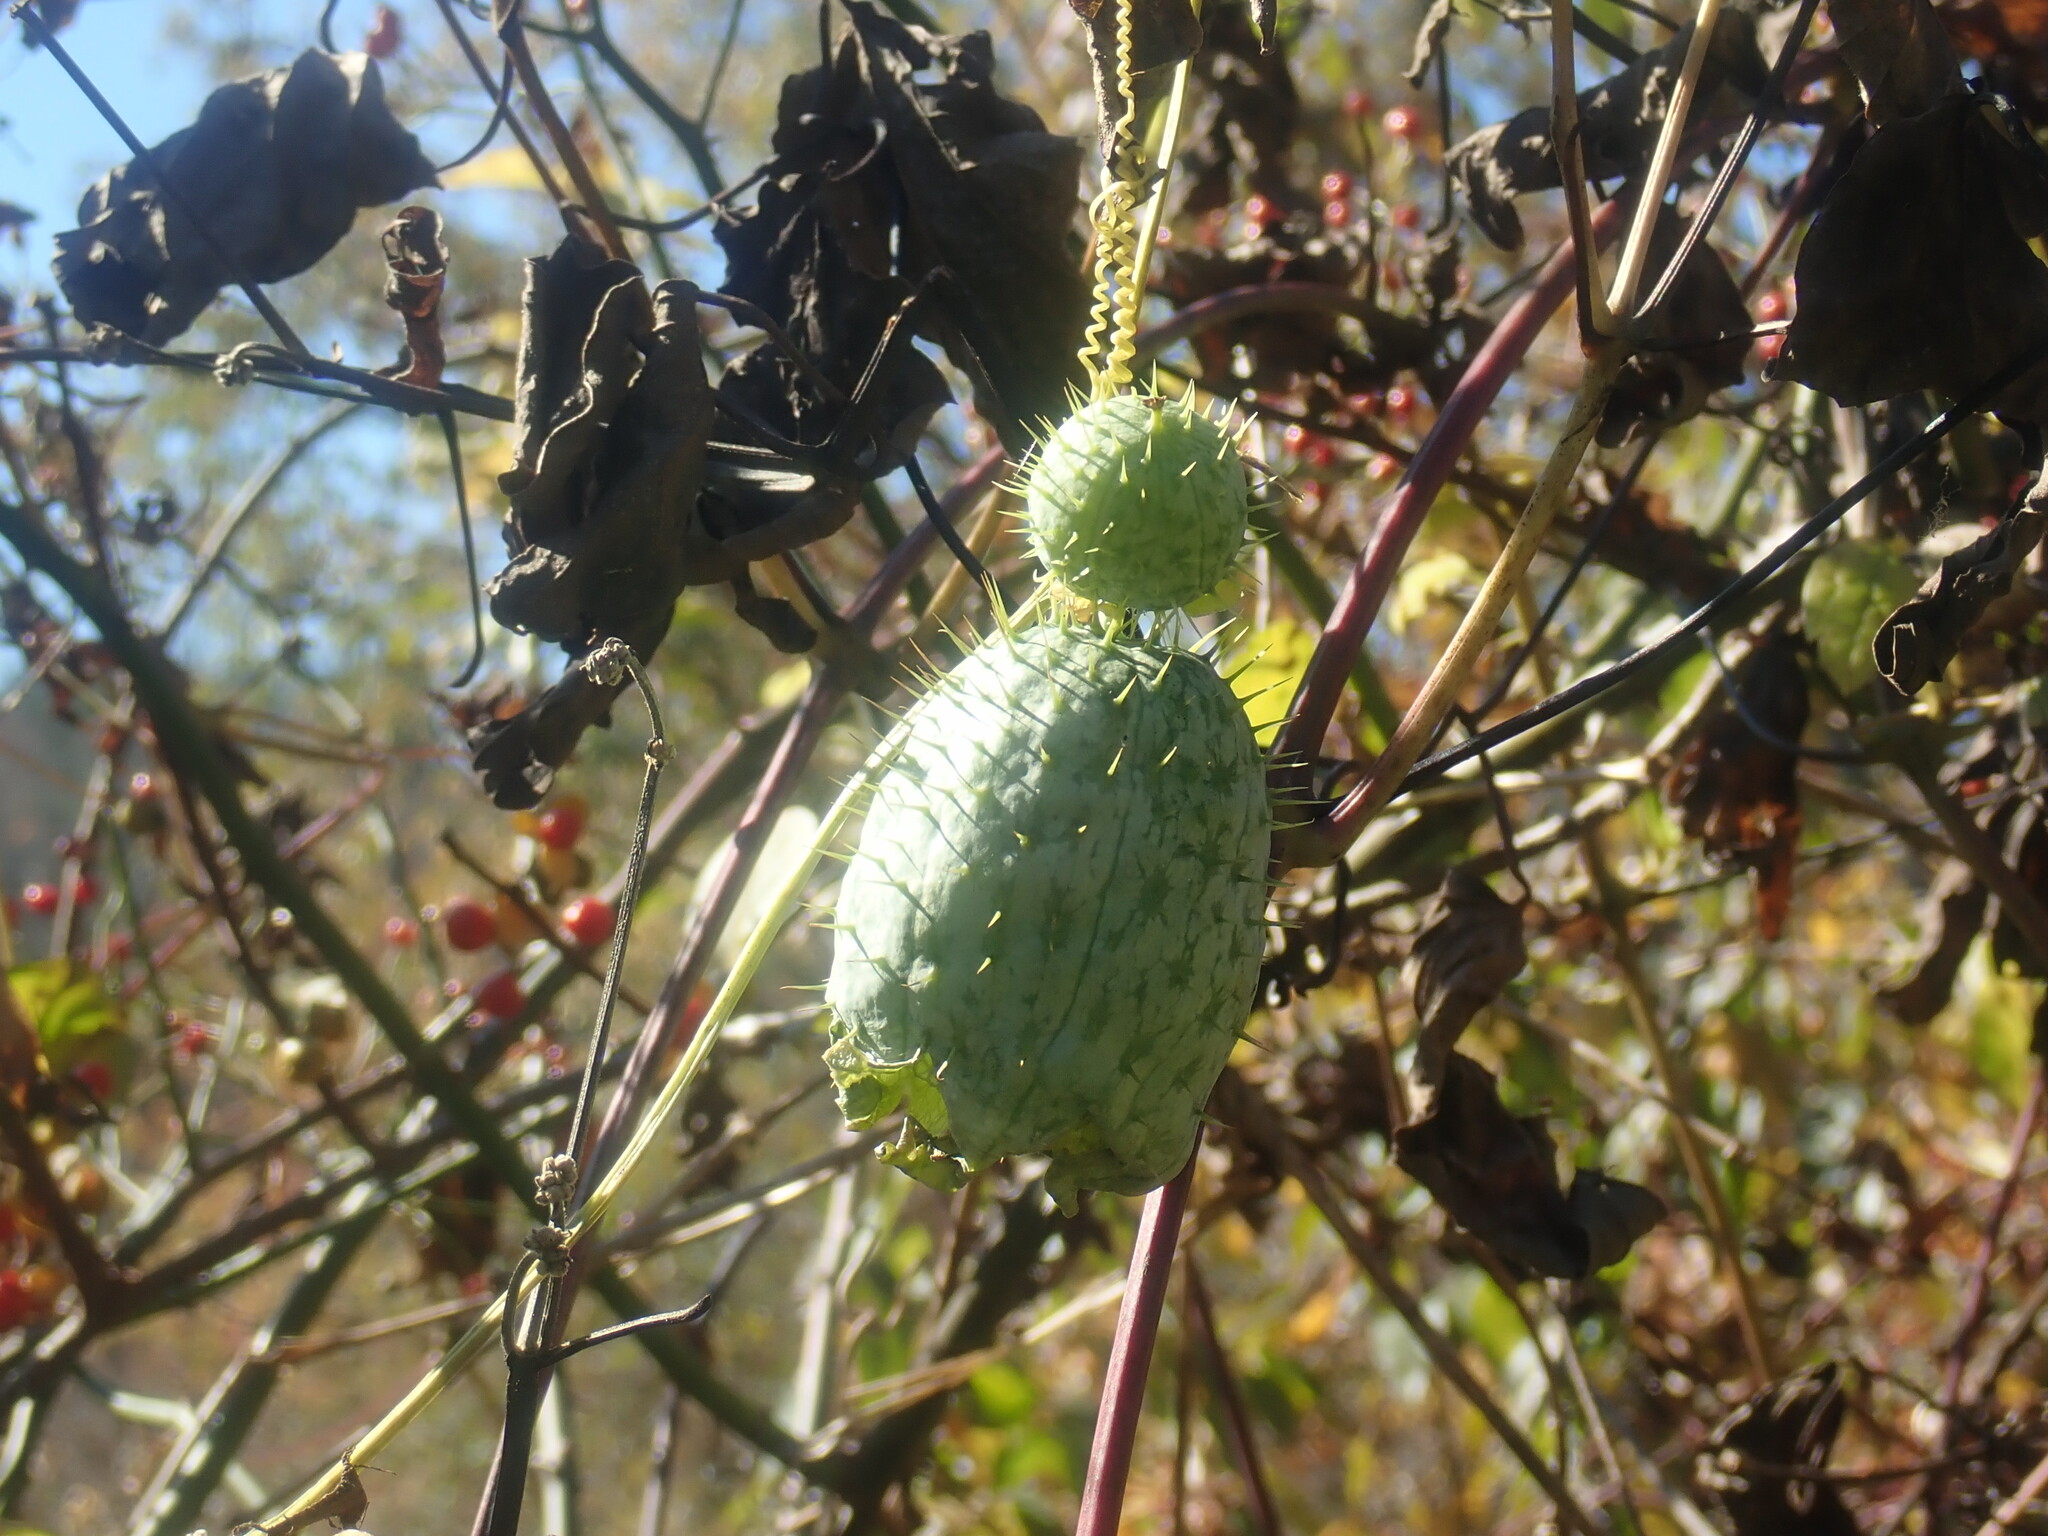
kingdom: Plantae
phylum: Tracheophyta
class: Magnoliopsida
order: Cucurbitales
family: Cucurbitaceae
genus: Echinocystis
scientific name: Echinocystis lobata
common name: Wild cucumber
